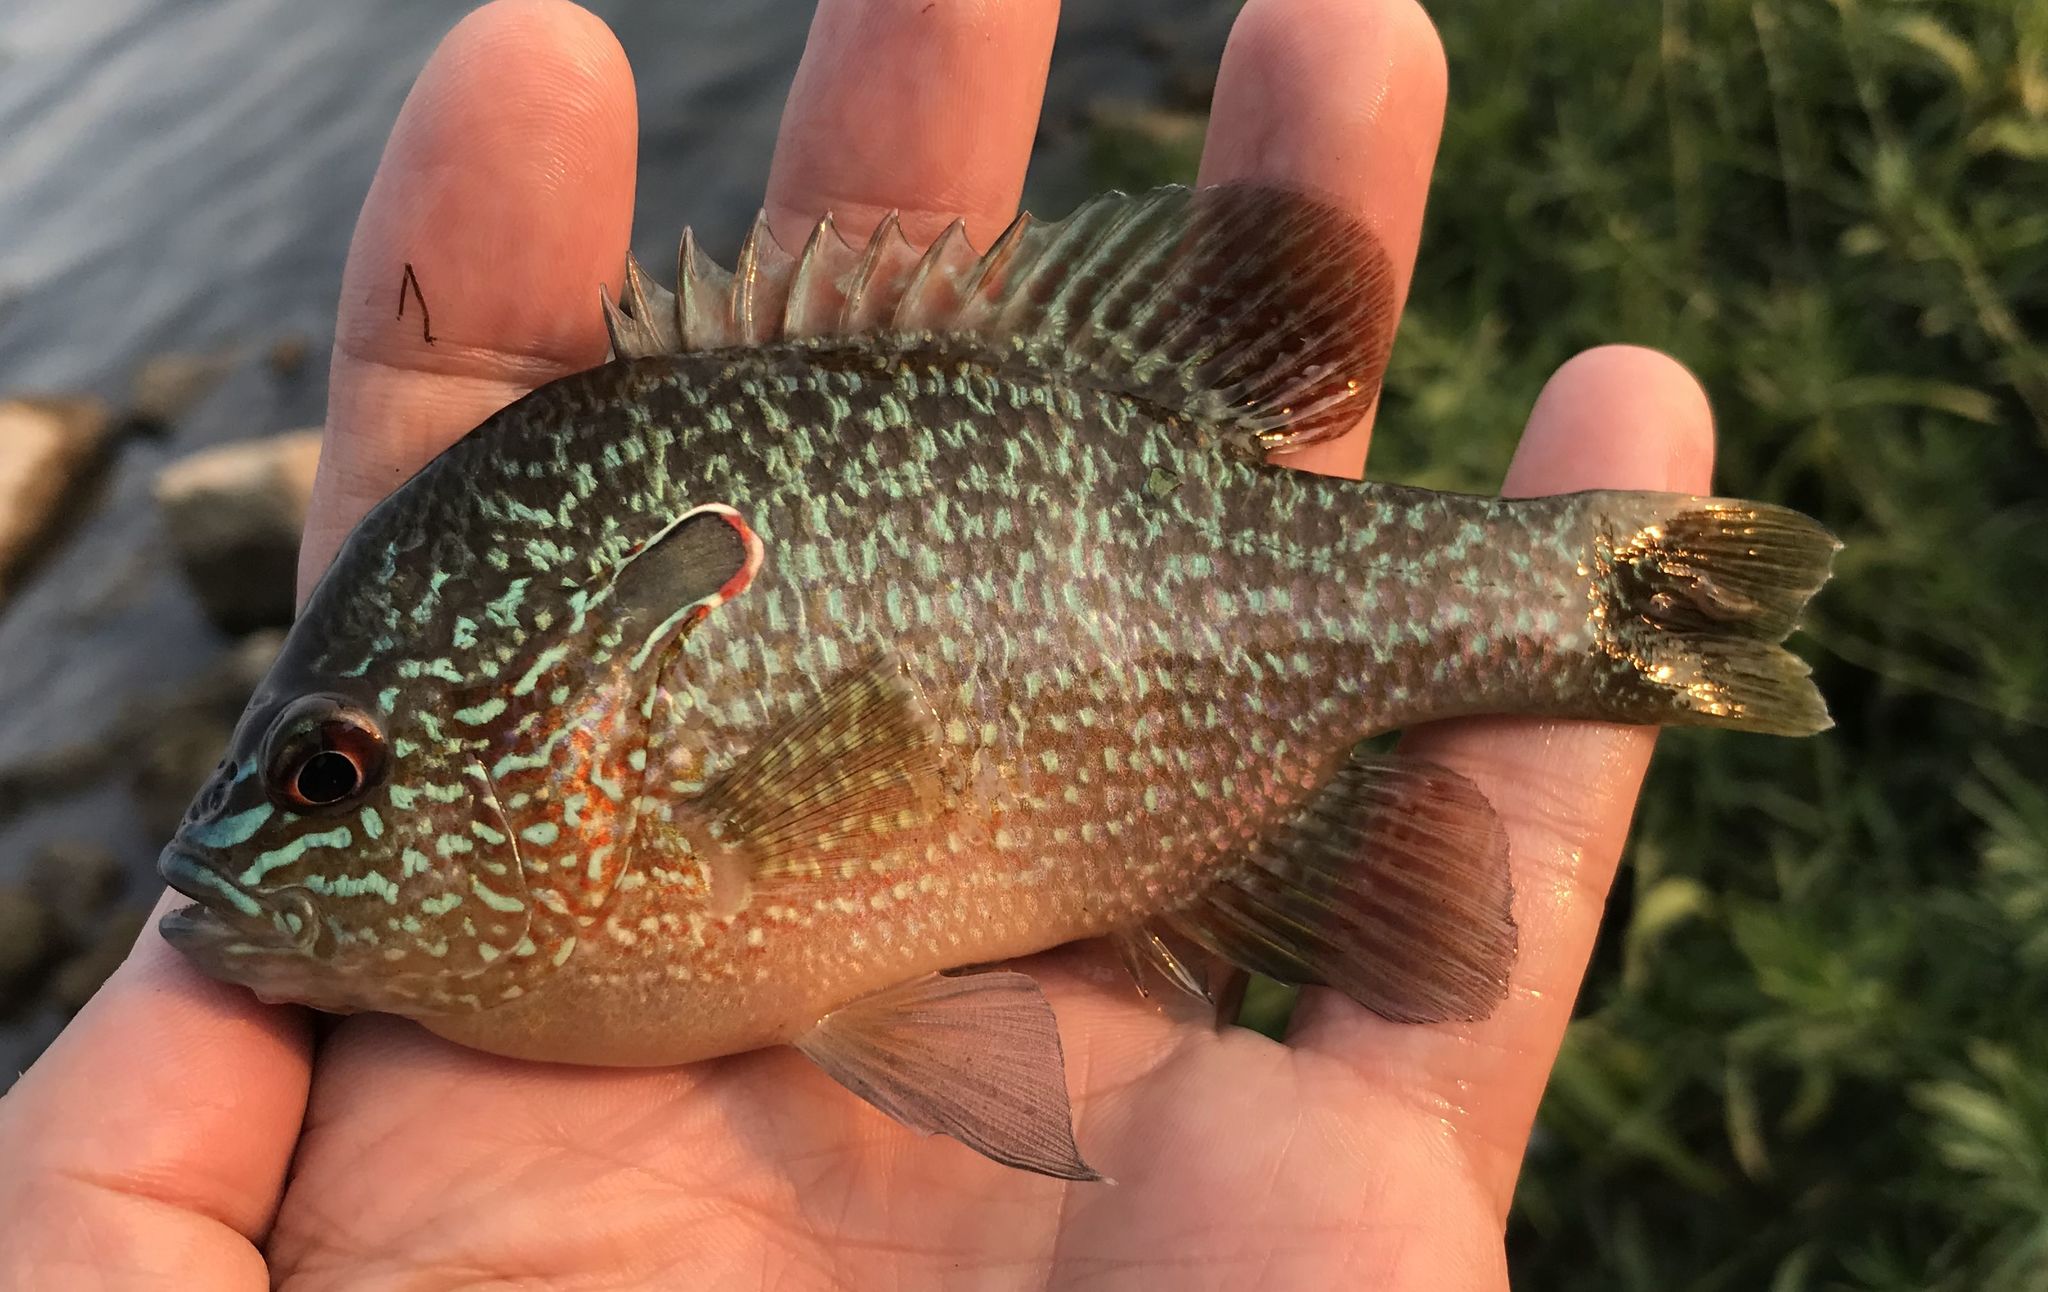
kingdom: Animalia
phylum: Chordata
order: Perciformes
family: Centrarchidae
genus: Lepomis
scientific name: Lepomis
